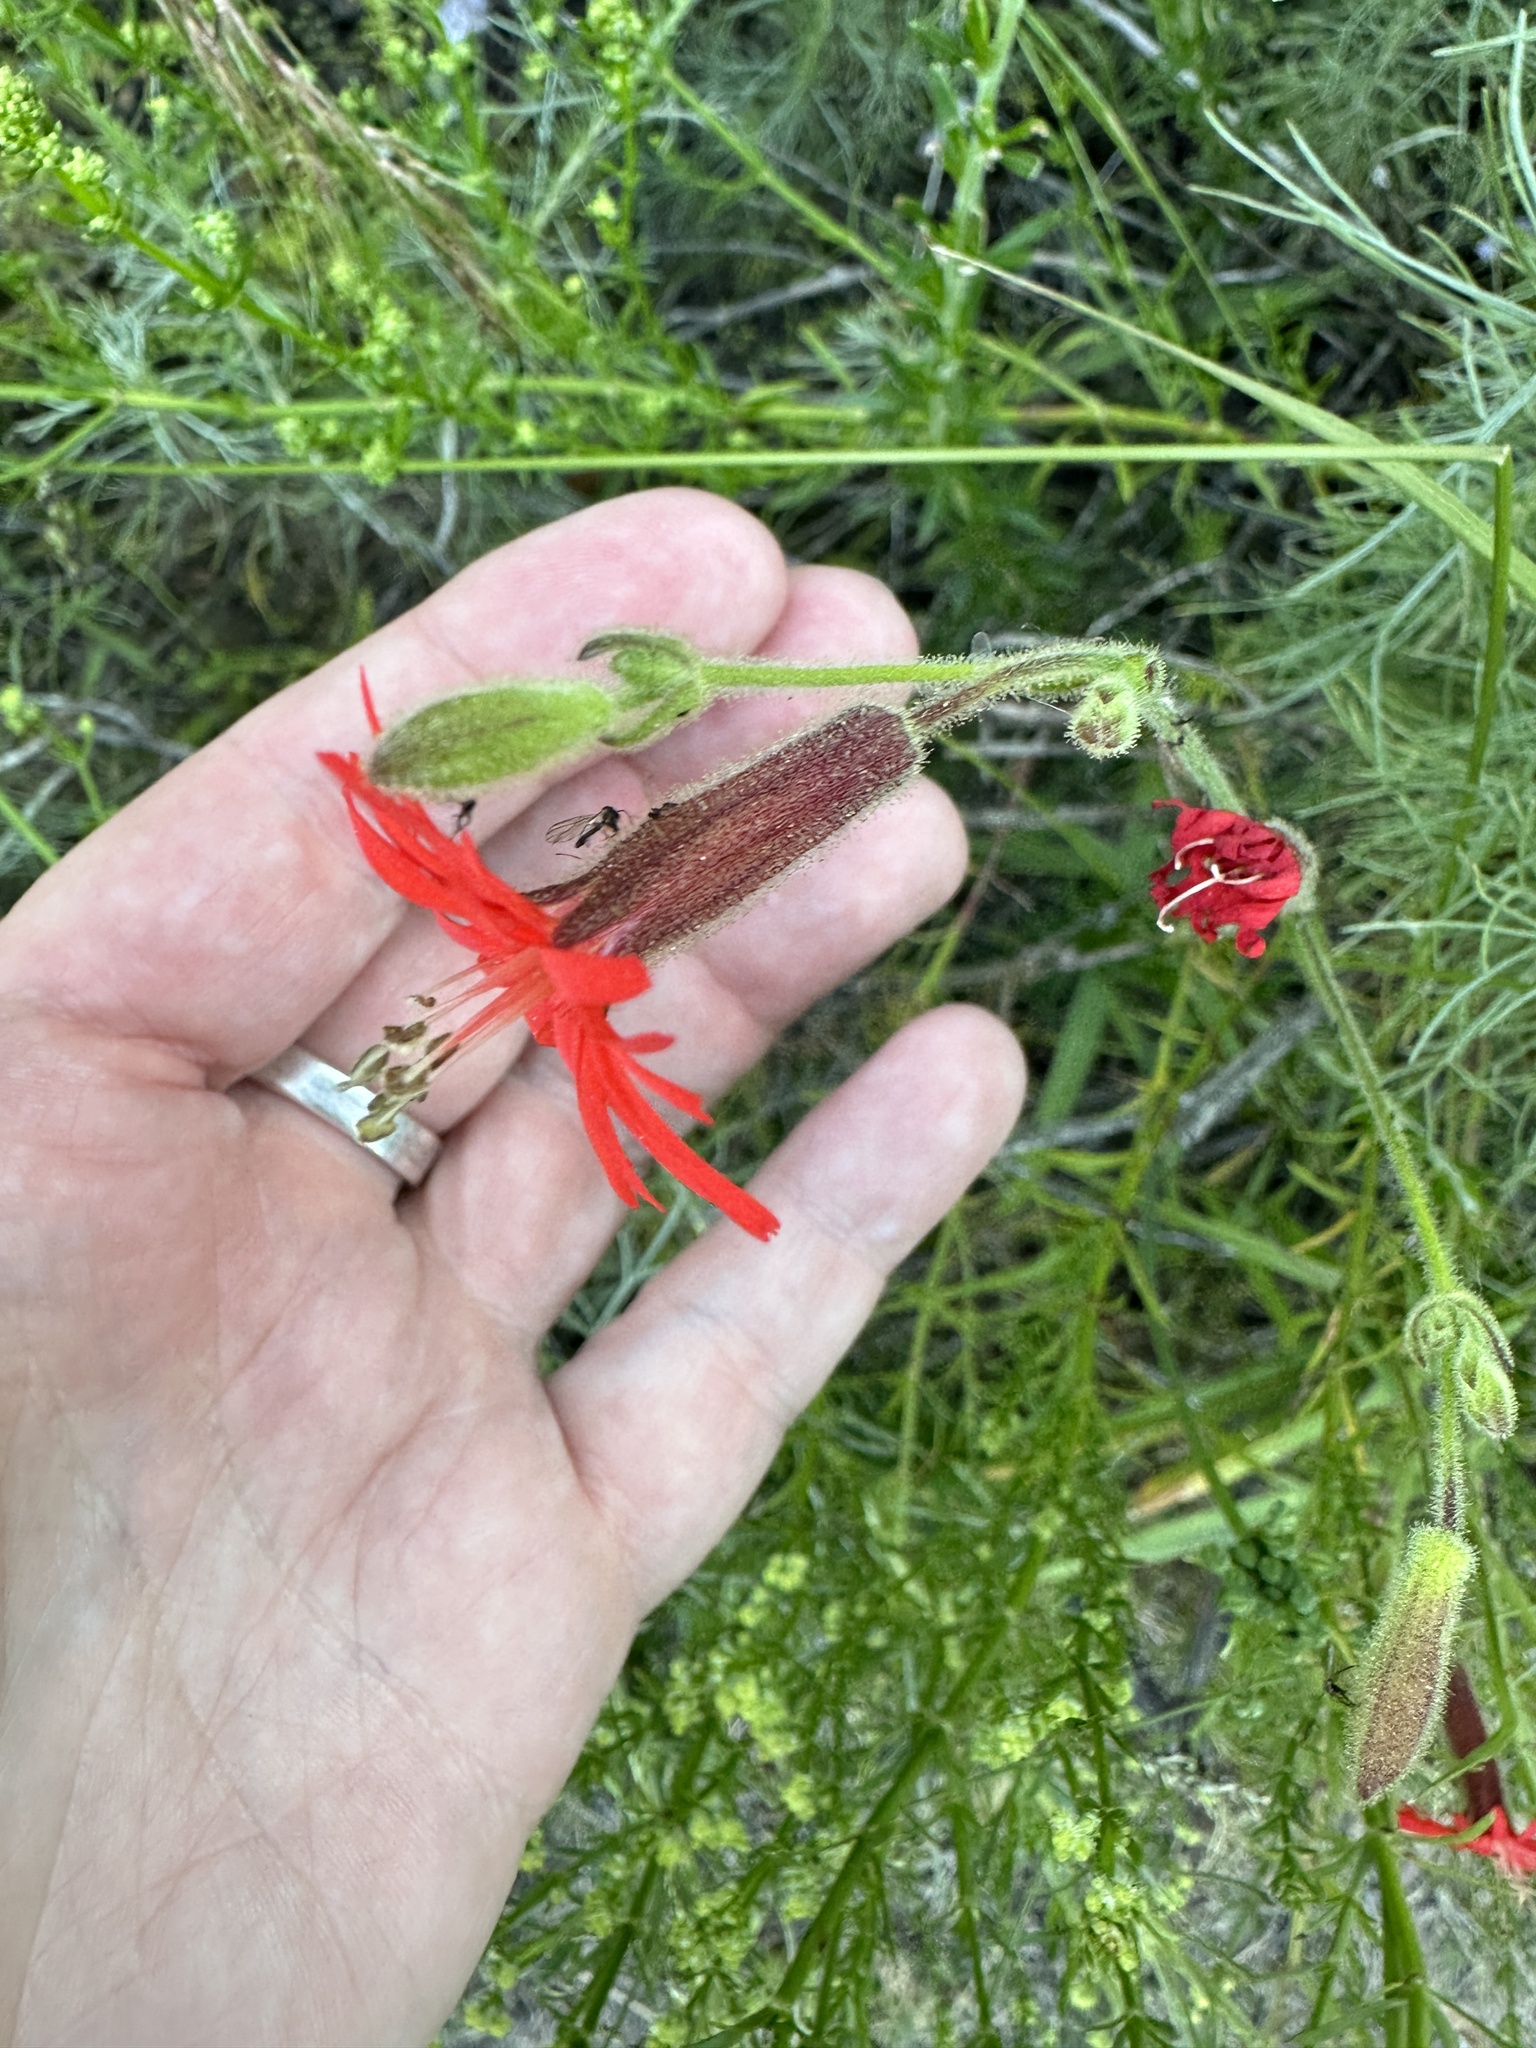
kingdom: Plantae
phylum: Tracheophyta
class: Magnoliopsida
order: Caryophyllales
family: Caryophyllaceae
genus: Silene
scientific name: Silene laciniata
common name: Indian-pink
